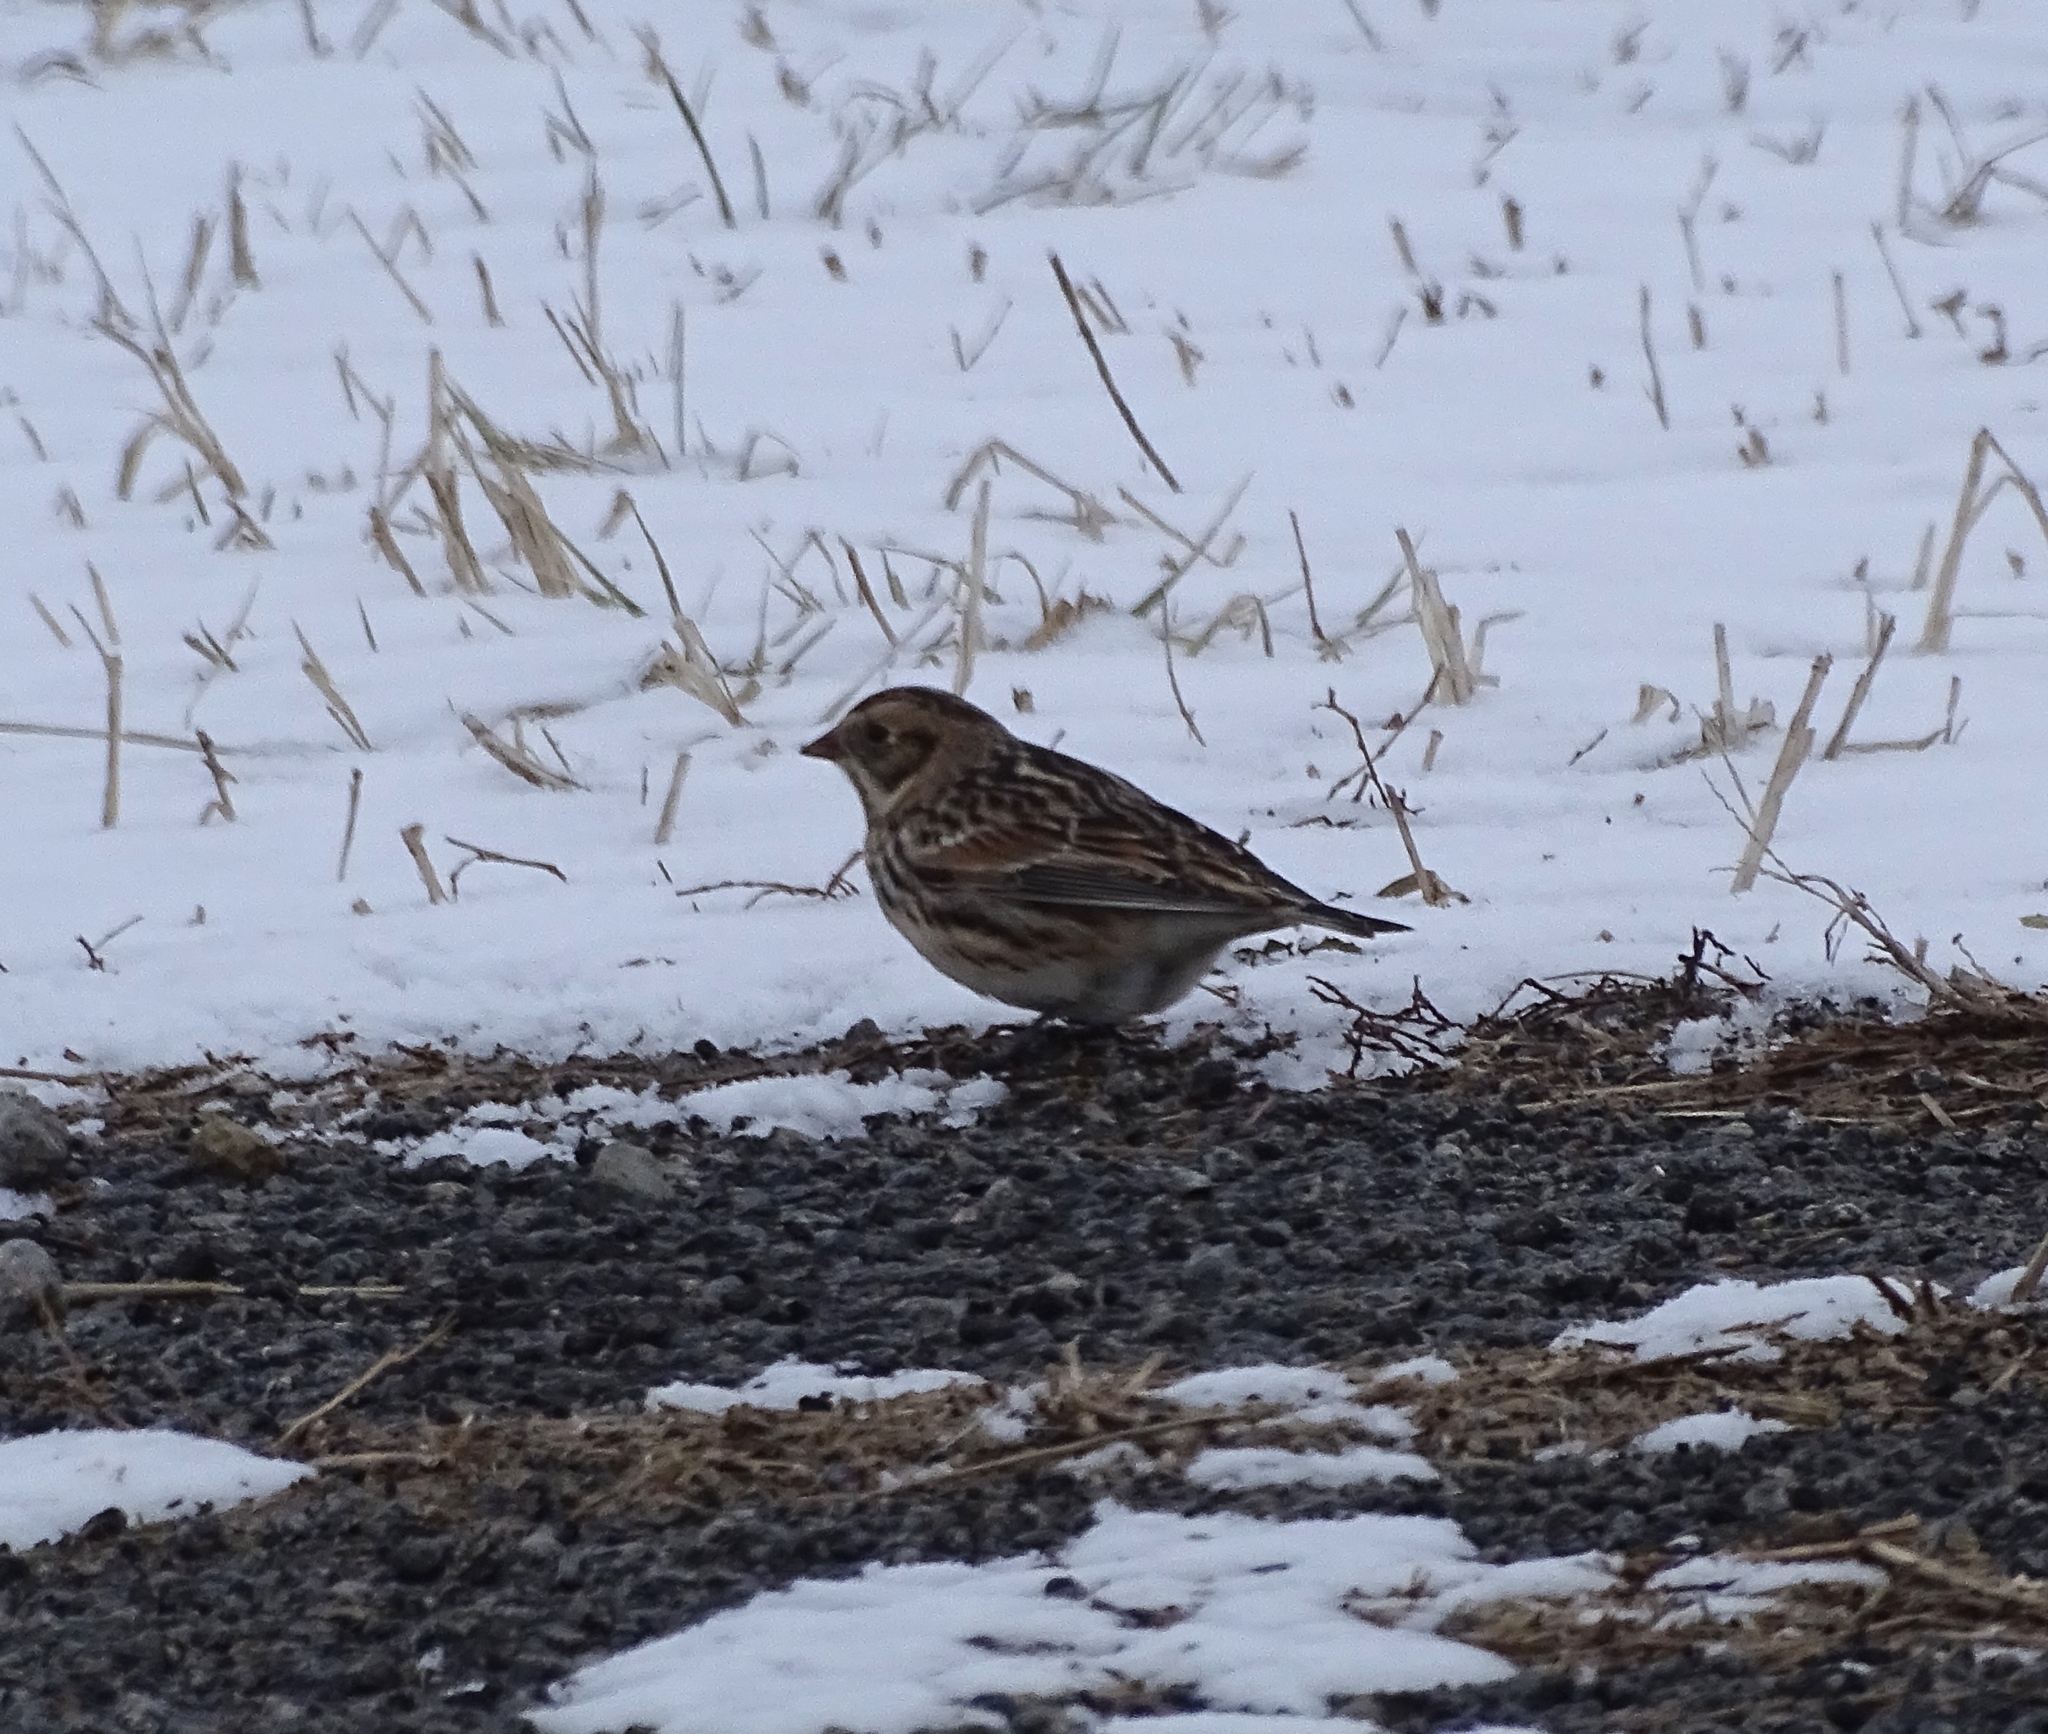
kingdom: Animalia
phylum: Chordata
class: Aves
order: Passeriformes
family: Calcariidae
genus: Calcarius
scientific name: Calcarius lapponicus
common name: Lapland longspur
